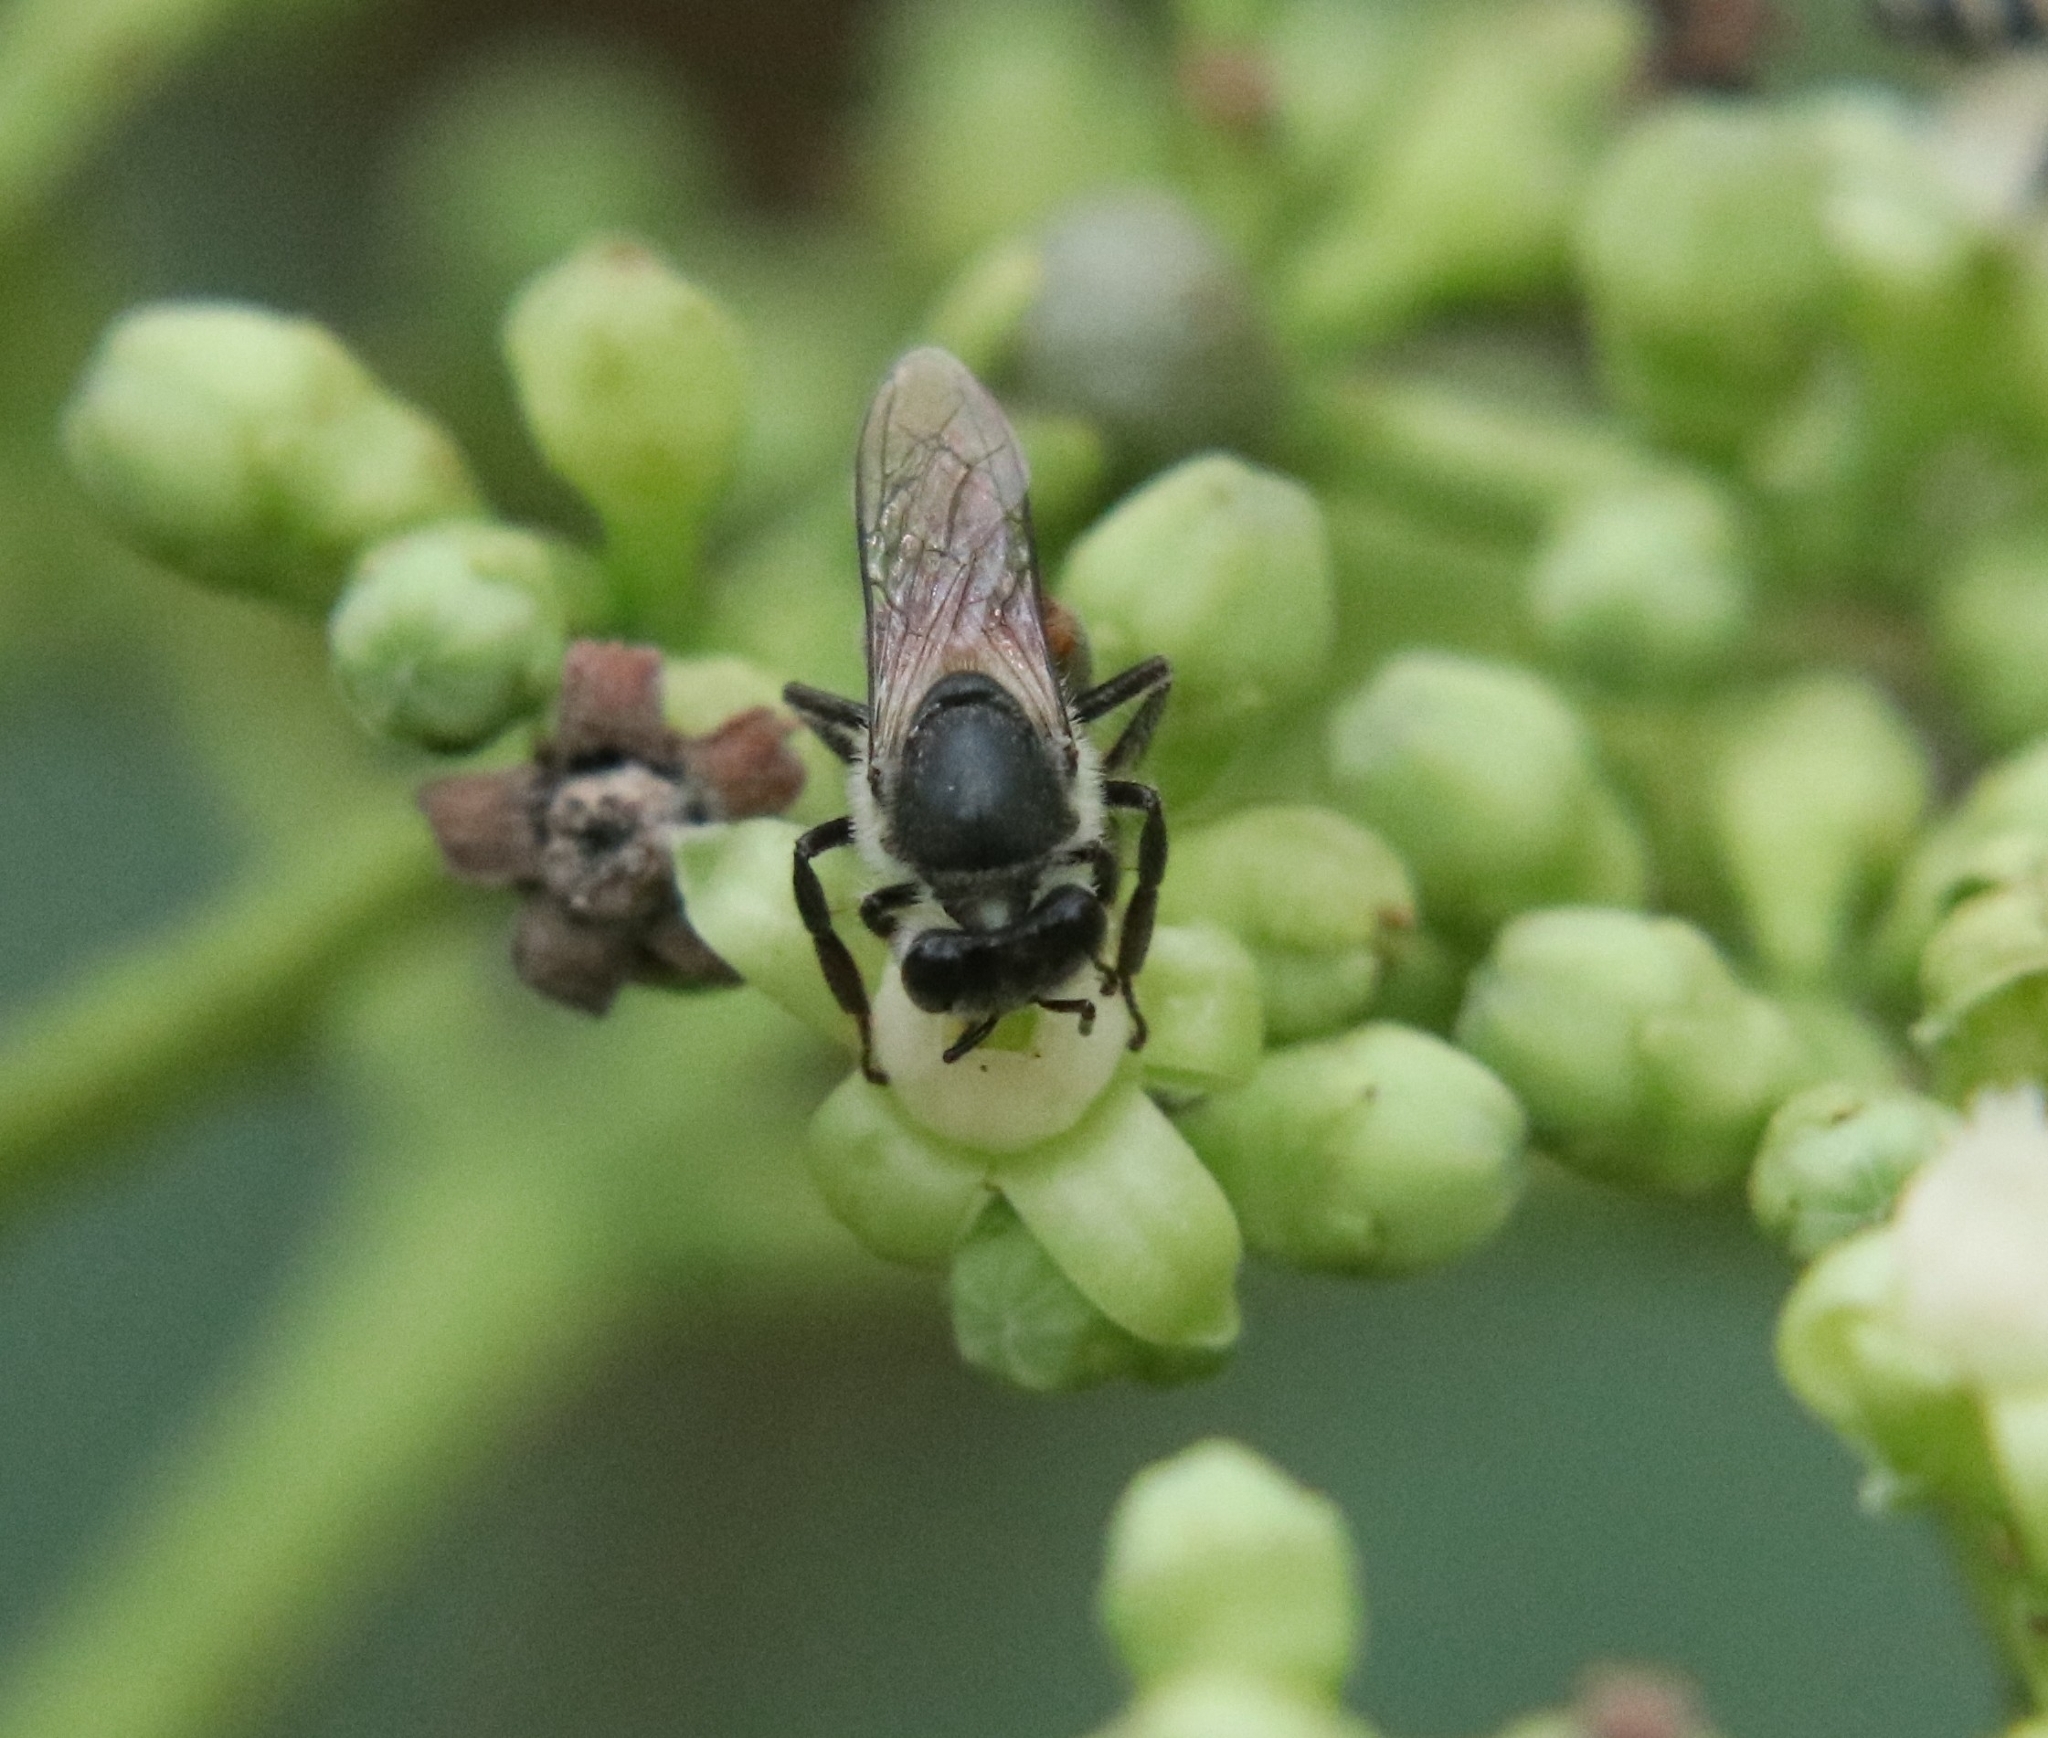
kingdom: Animalia
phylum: Arthropoda
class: Insecta
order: Hymenoptera
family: Apidae
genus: Apis
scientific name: Apis florea
